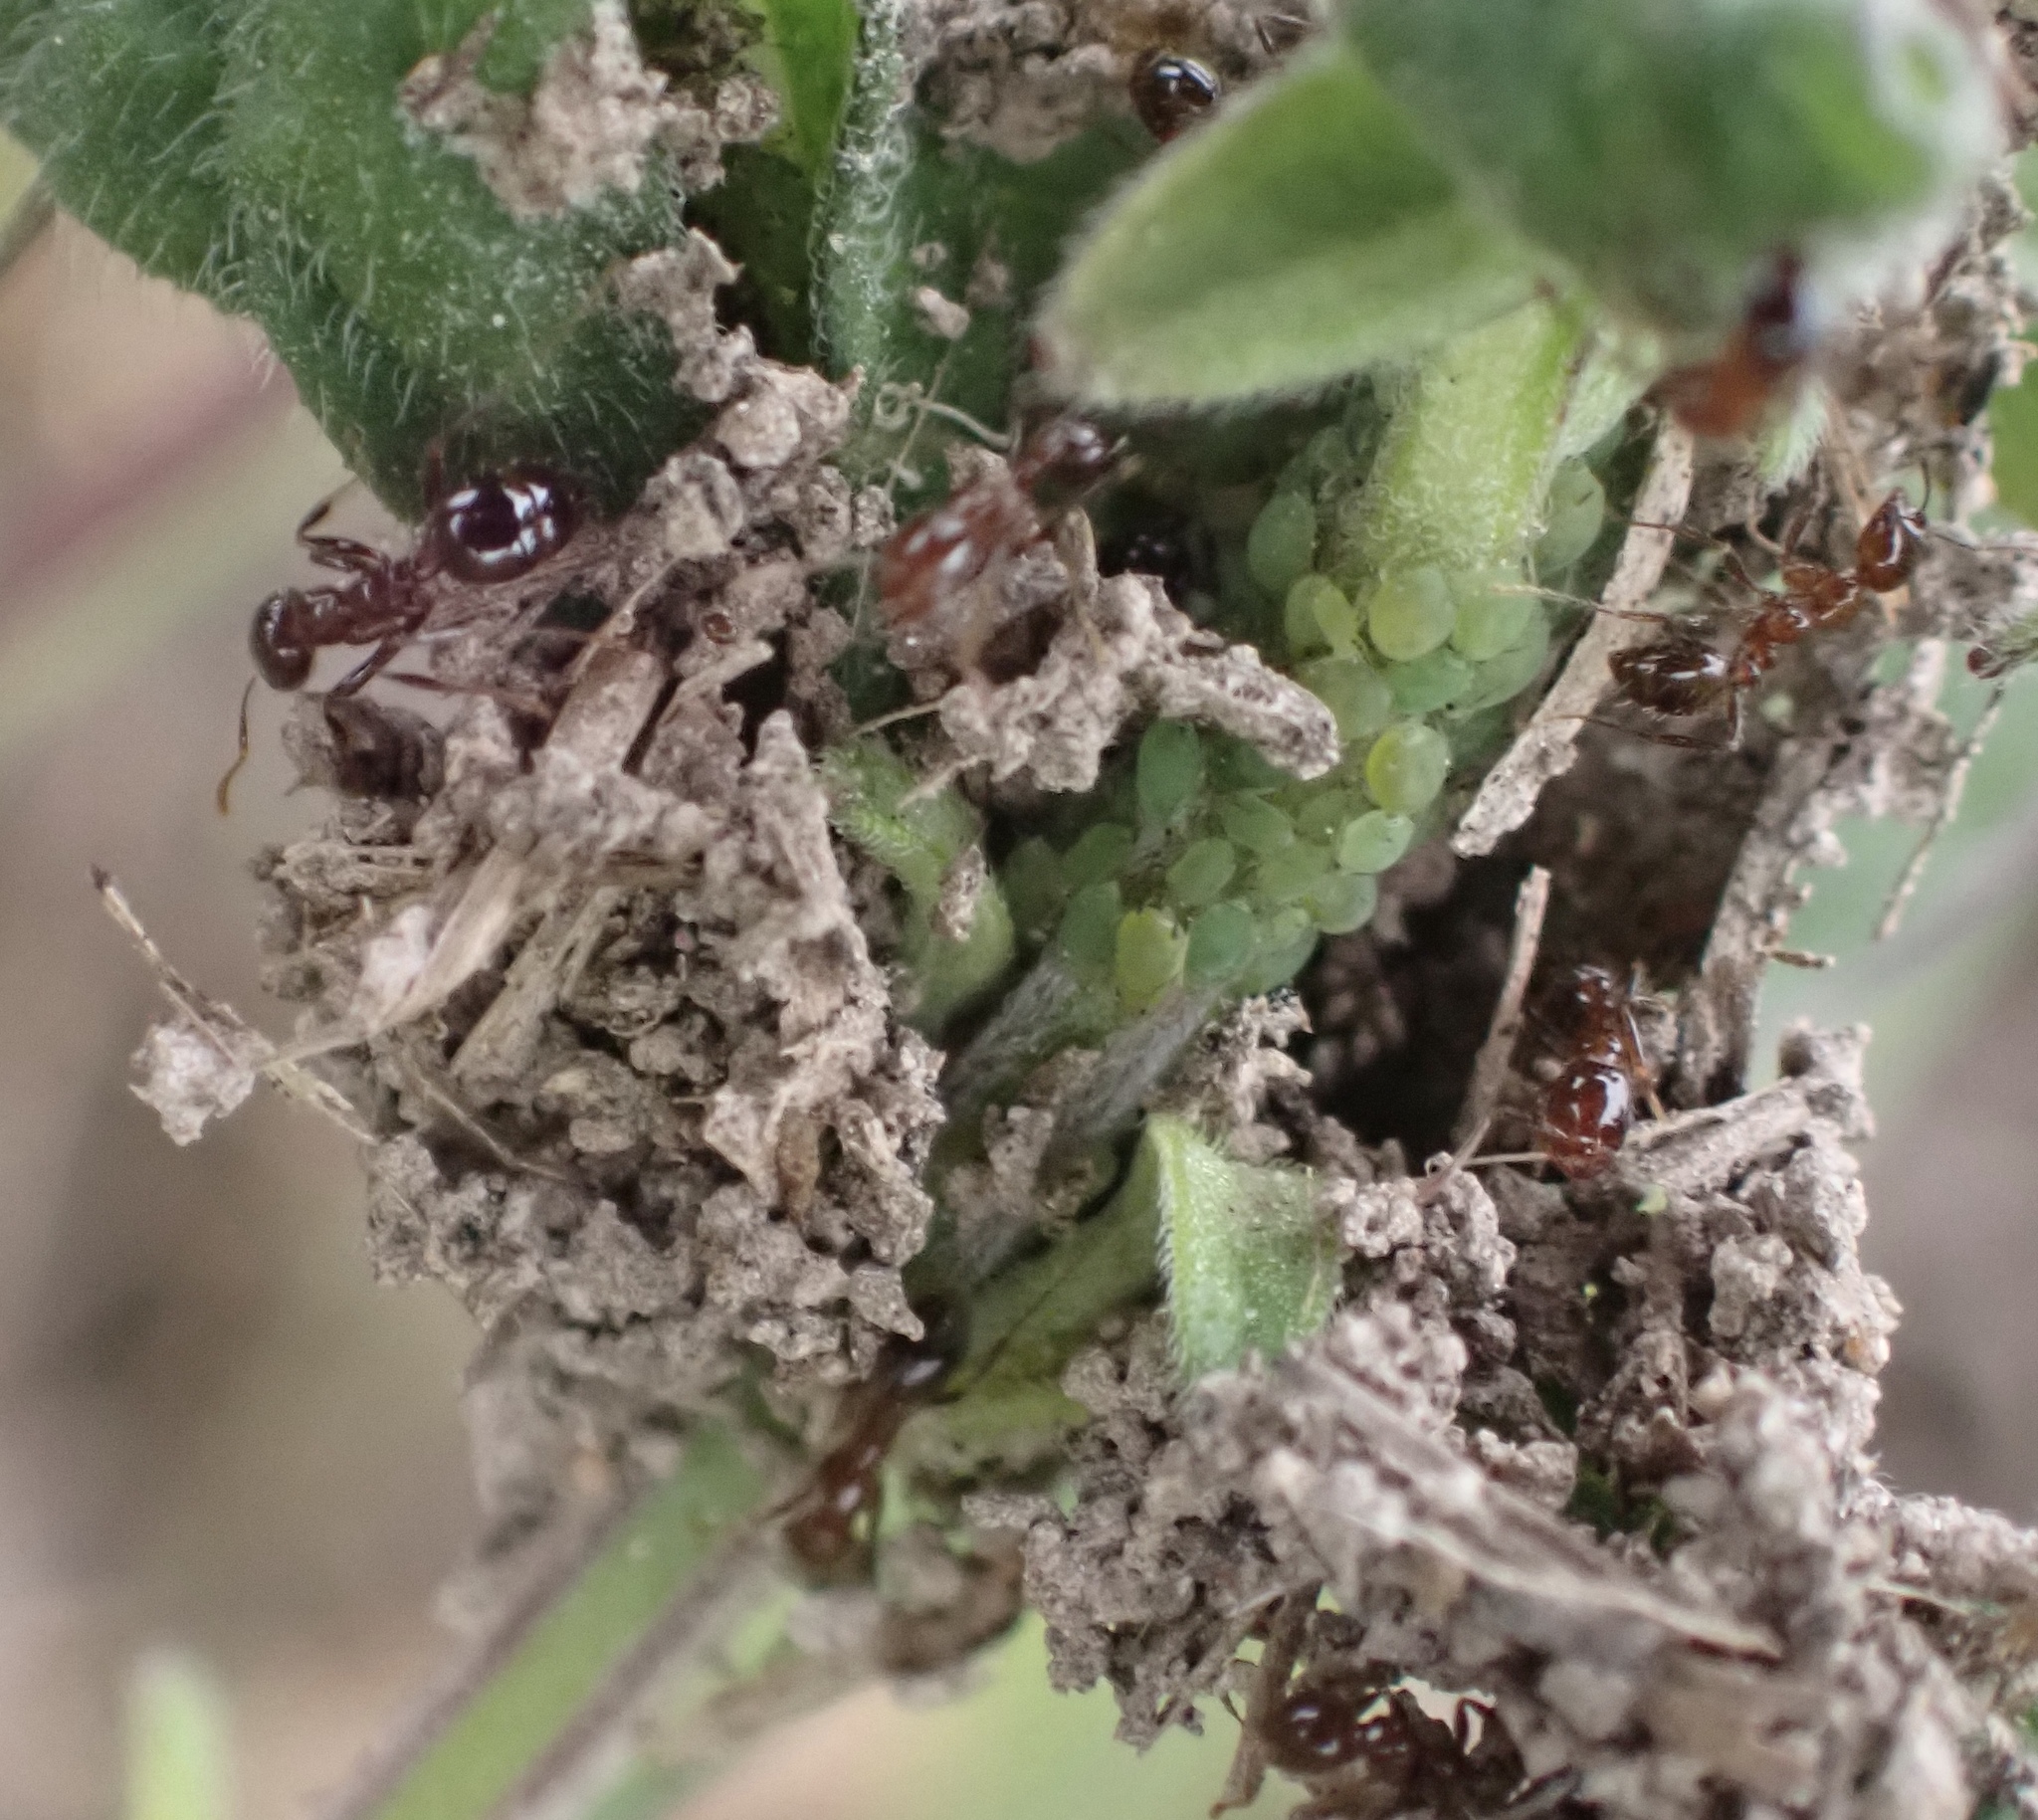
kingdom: Animalia
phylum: Arthropoda
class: Insecta
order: Hymenoptera
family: Formicidae
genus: Solenopsis
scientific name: Solenopsis invicta
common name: Red imported fire ant
